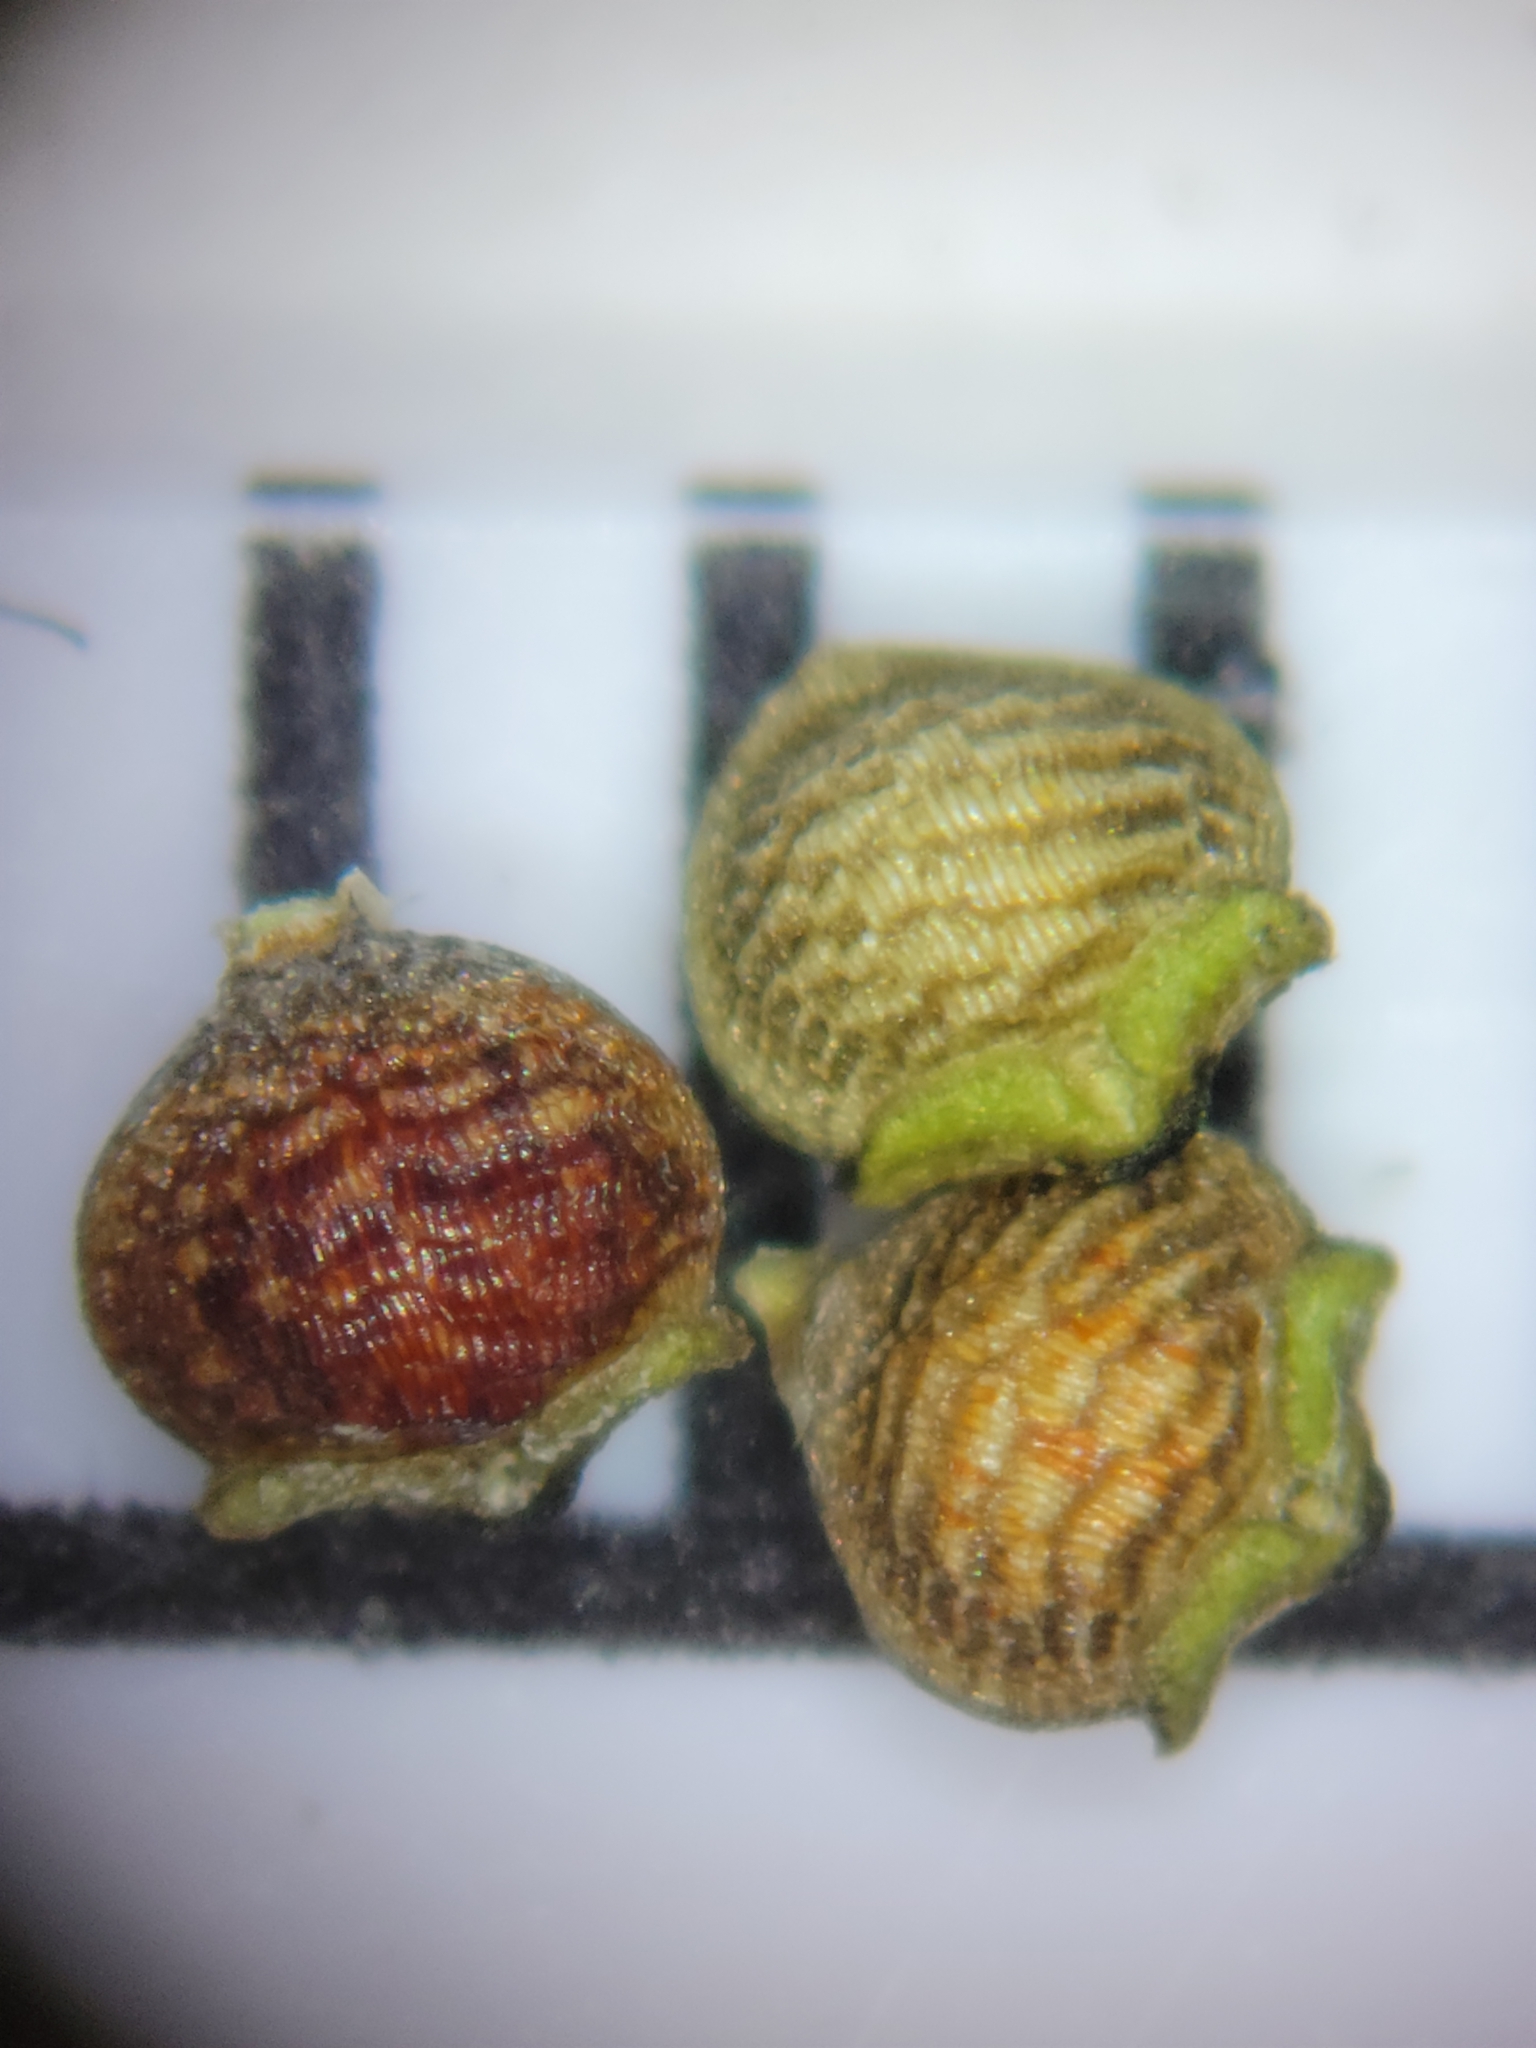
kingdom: Plantae
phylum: Tracheophyta
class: Liliopsida
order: Poales
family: Cyperaceae
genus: Rhynchospora
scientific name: Rhynchospora eximia
